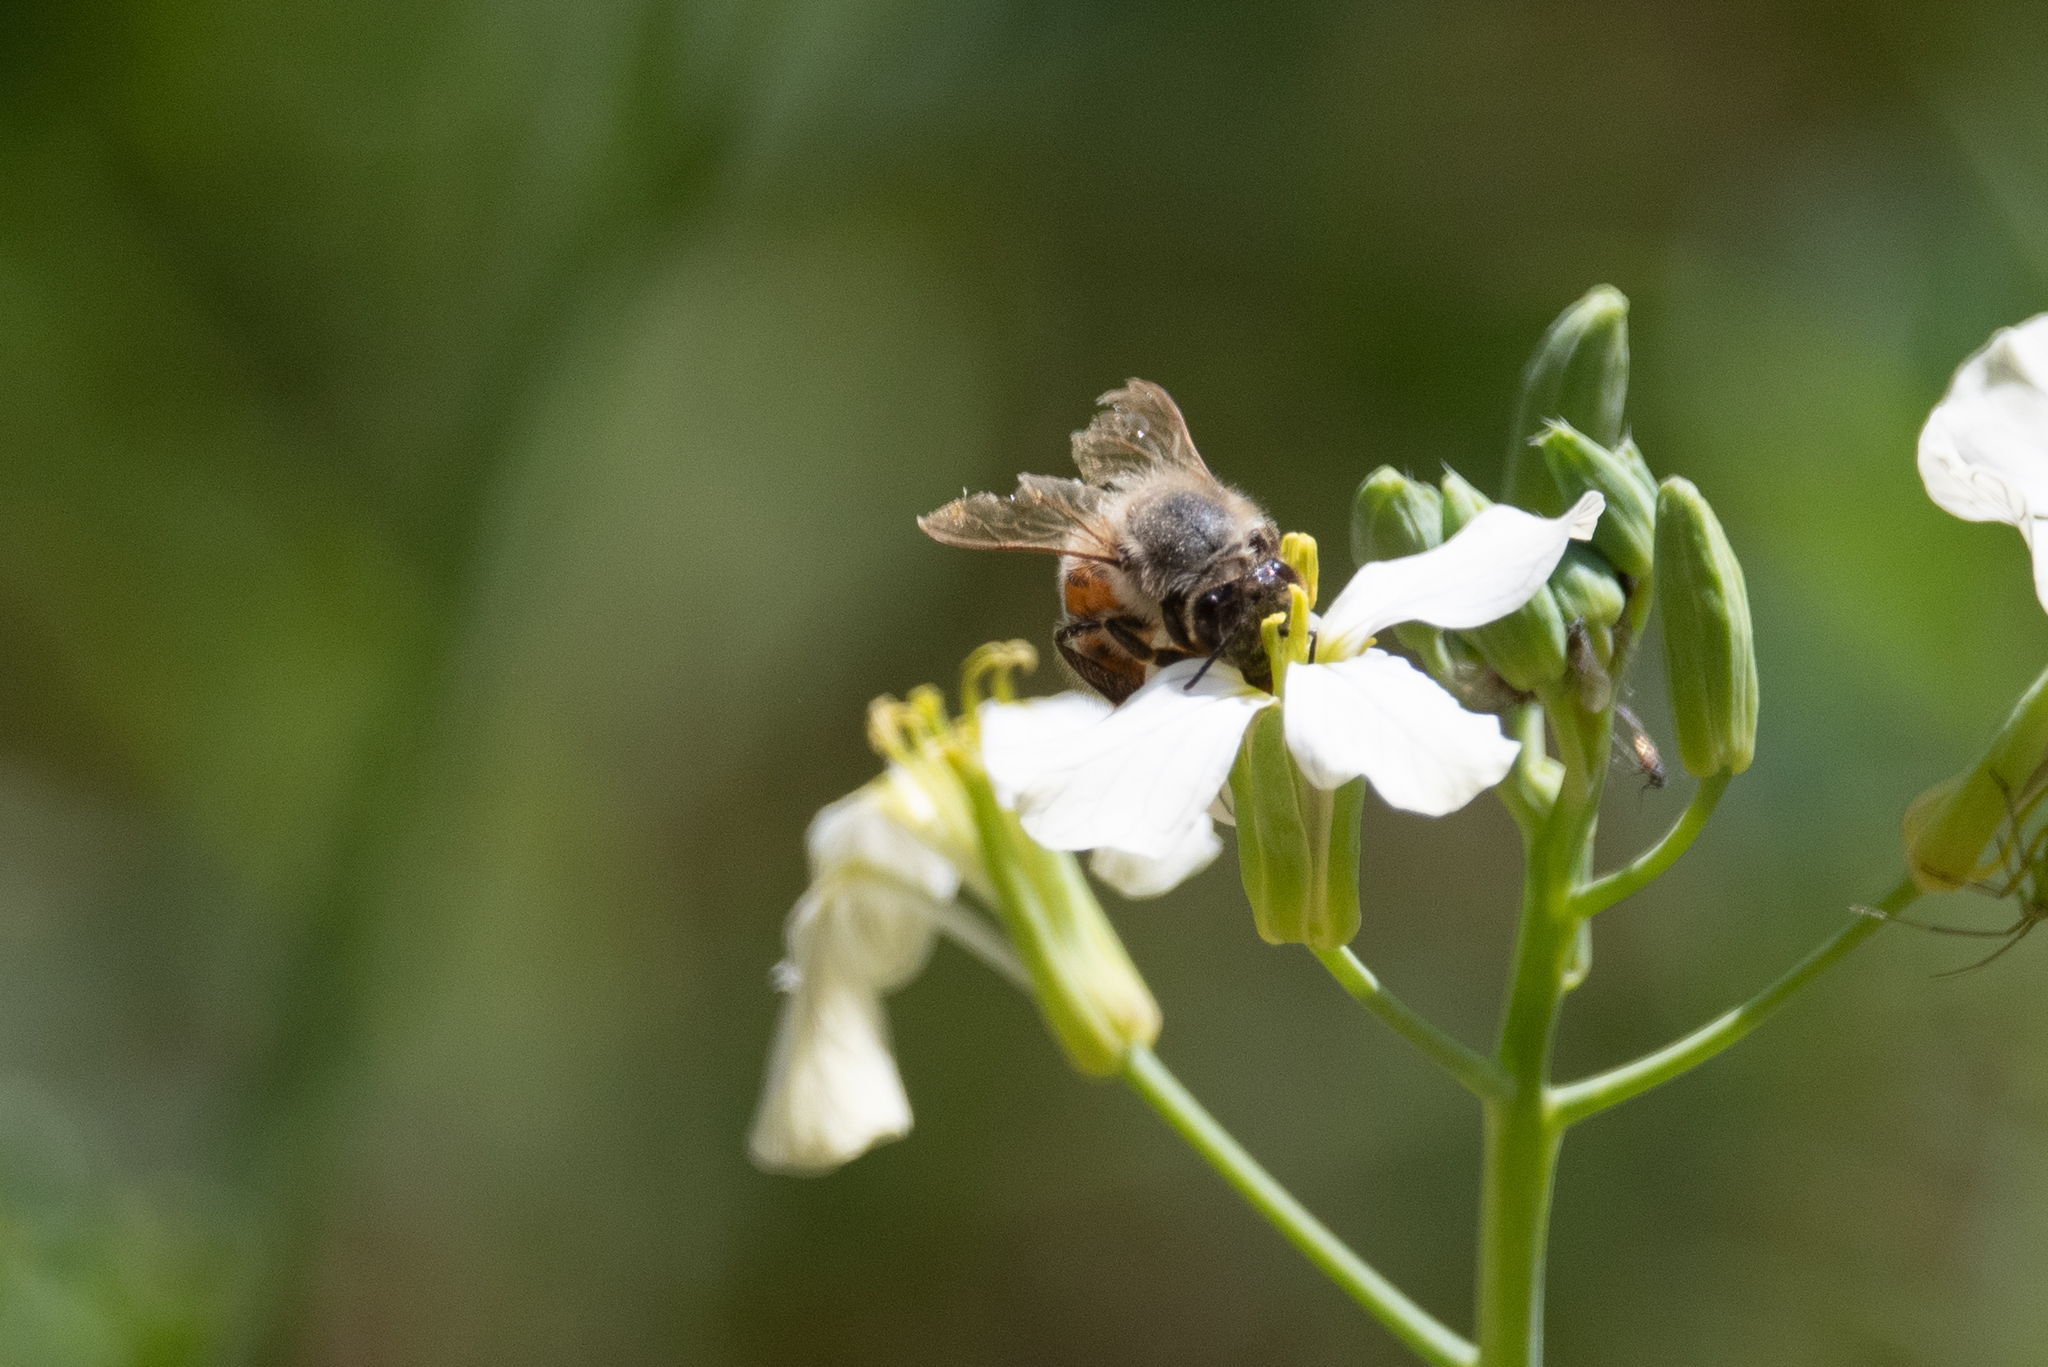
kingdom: Animalia
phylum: Arthropoda
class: Insecta
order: Hymenoptera
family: Apidae
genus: Apis
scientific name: Apis mellifera
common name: Honey bee
